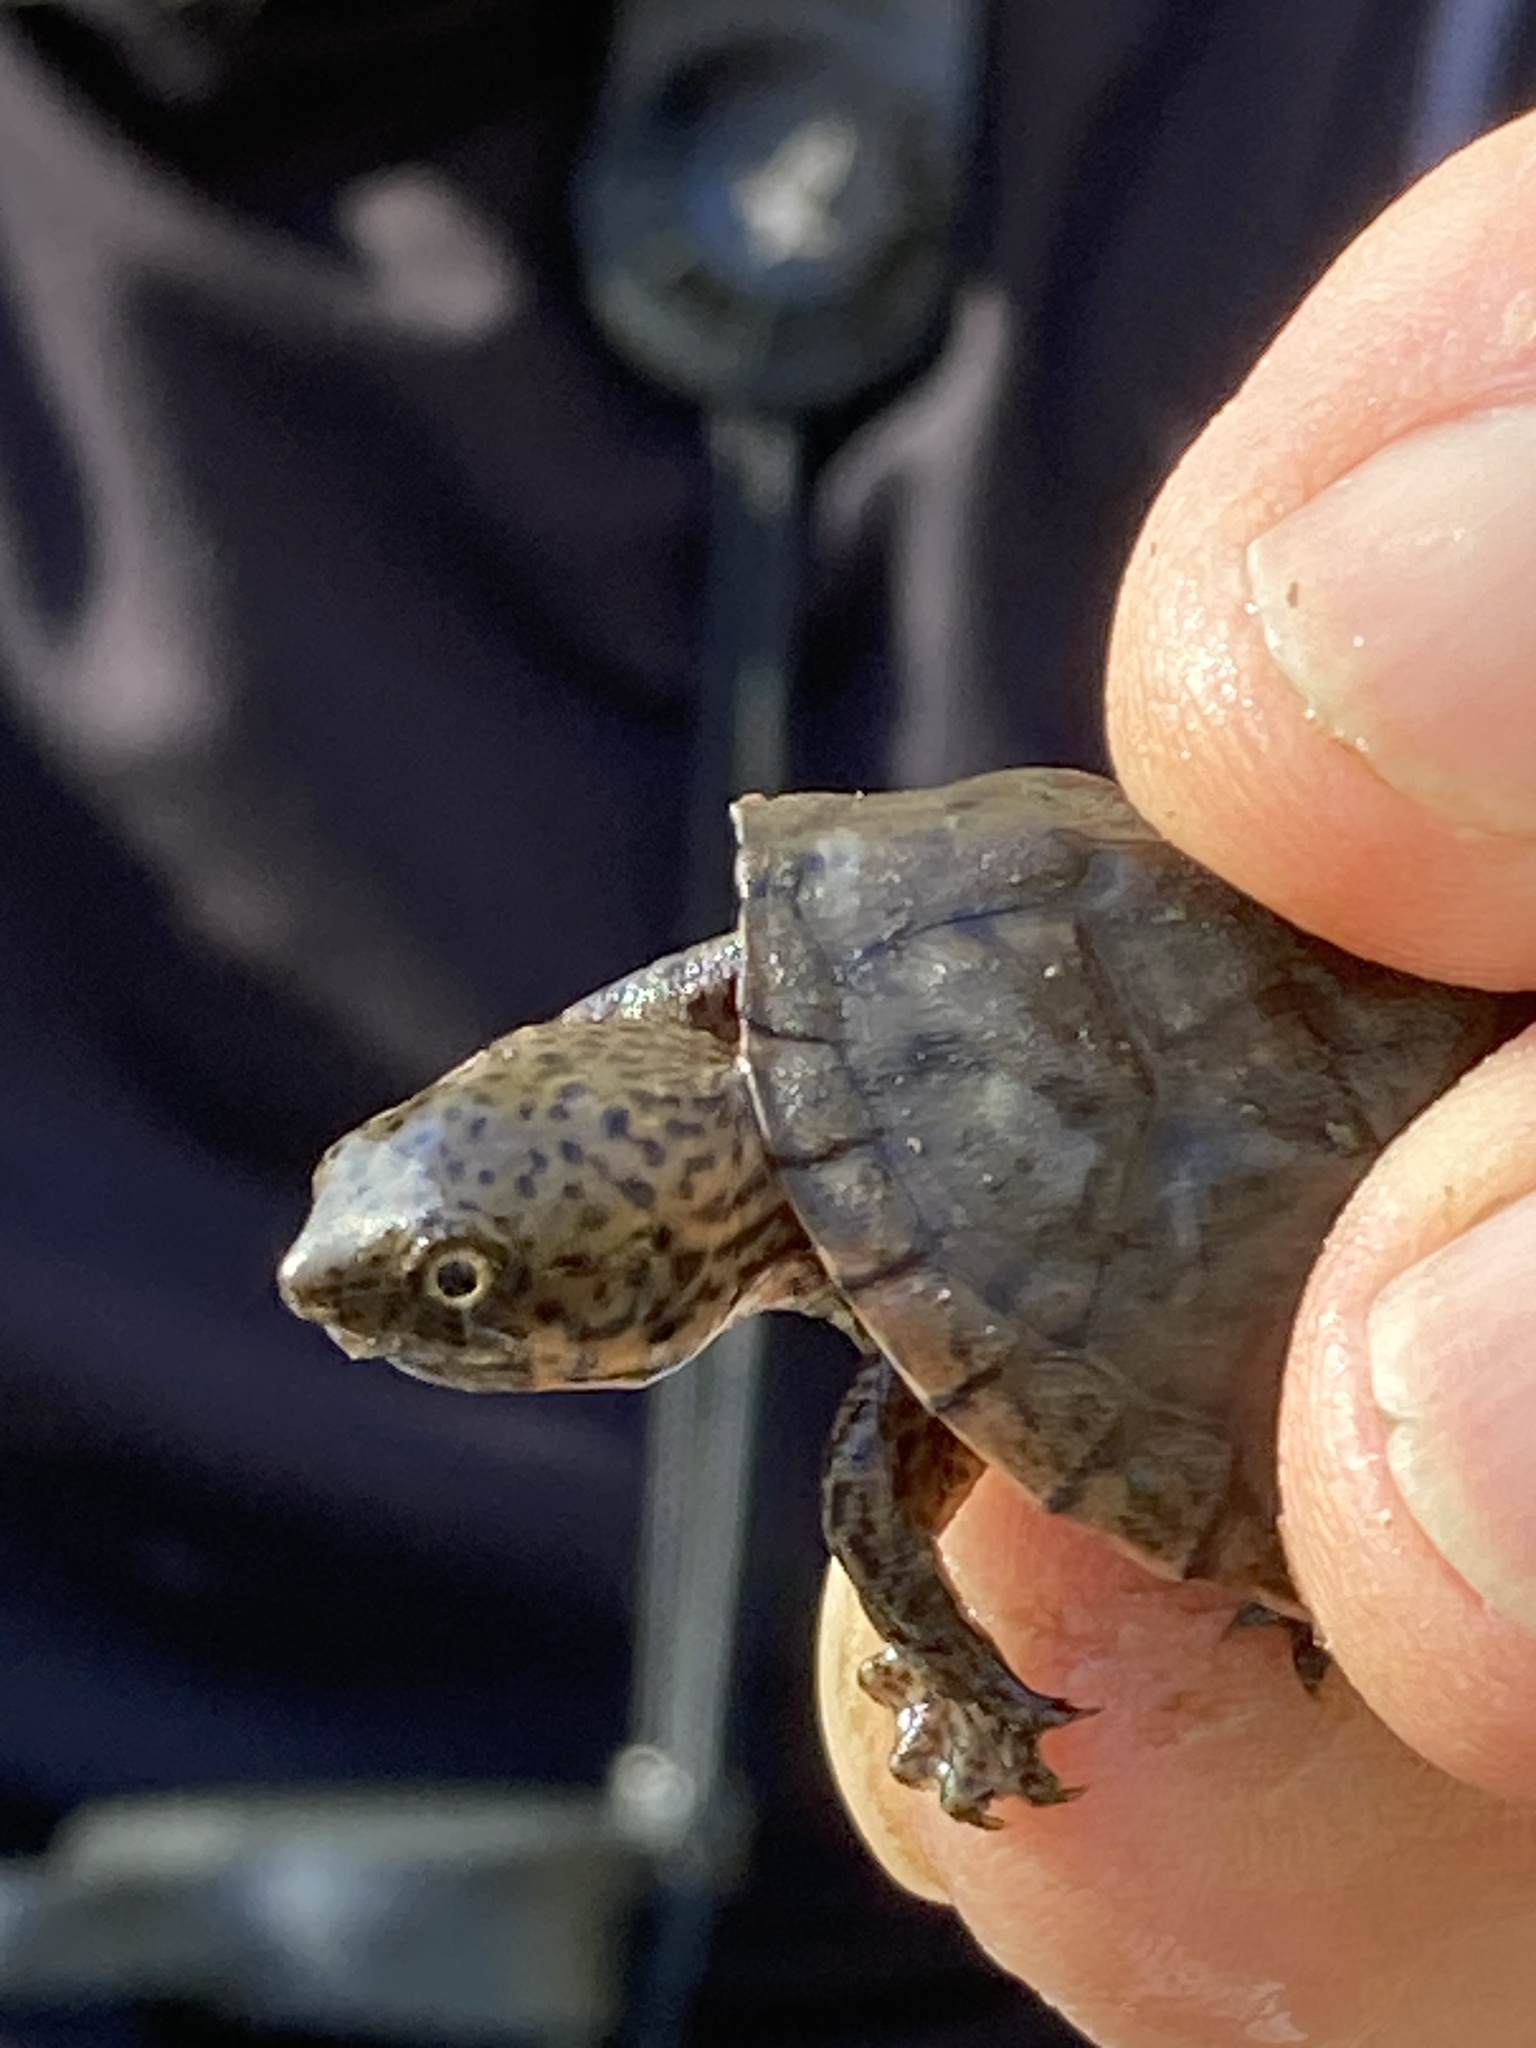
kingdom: Animalia
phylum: Chordata
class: Testudines
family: Kinosternidae
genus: Sternotherus
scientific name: Sternotherus minor
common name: Loggerhead musk turtle
